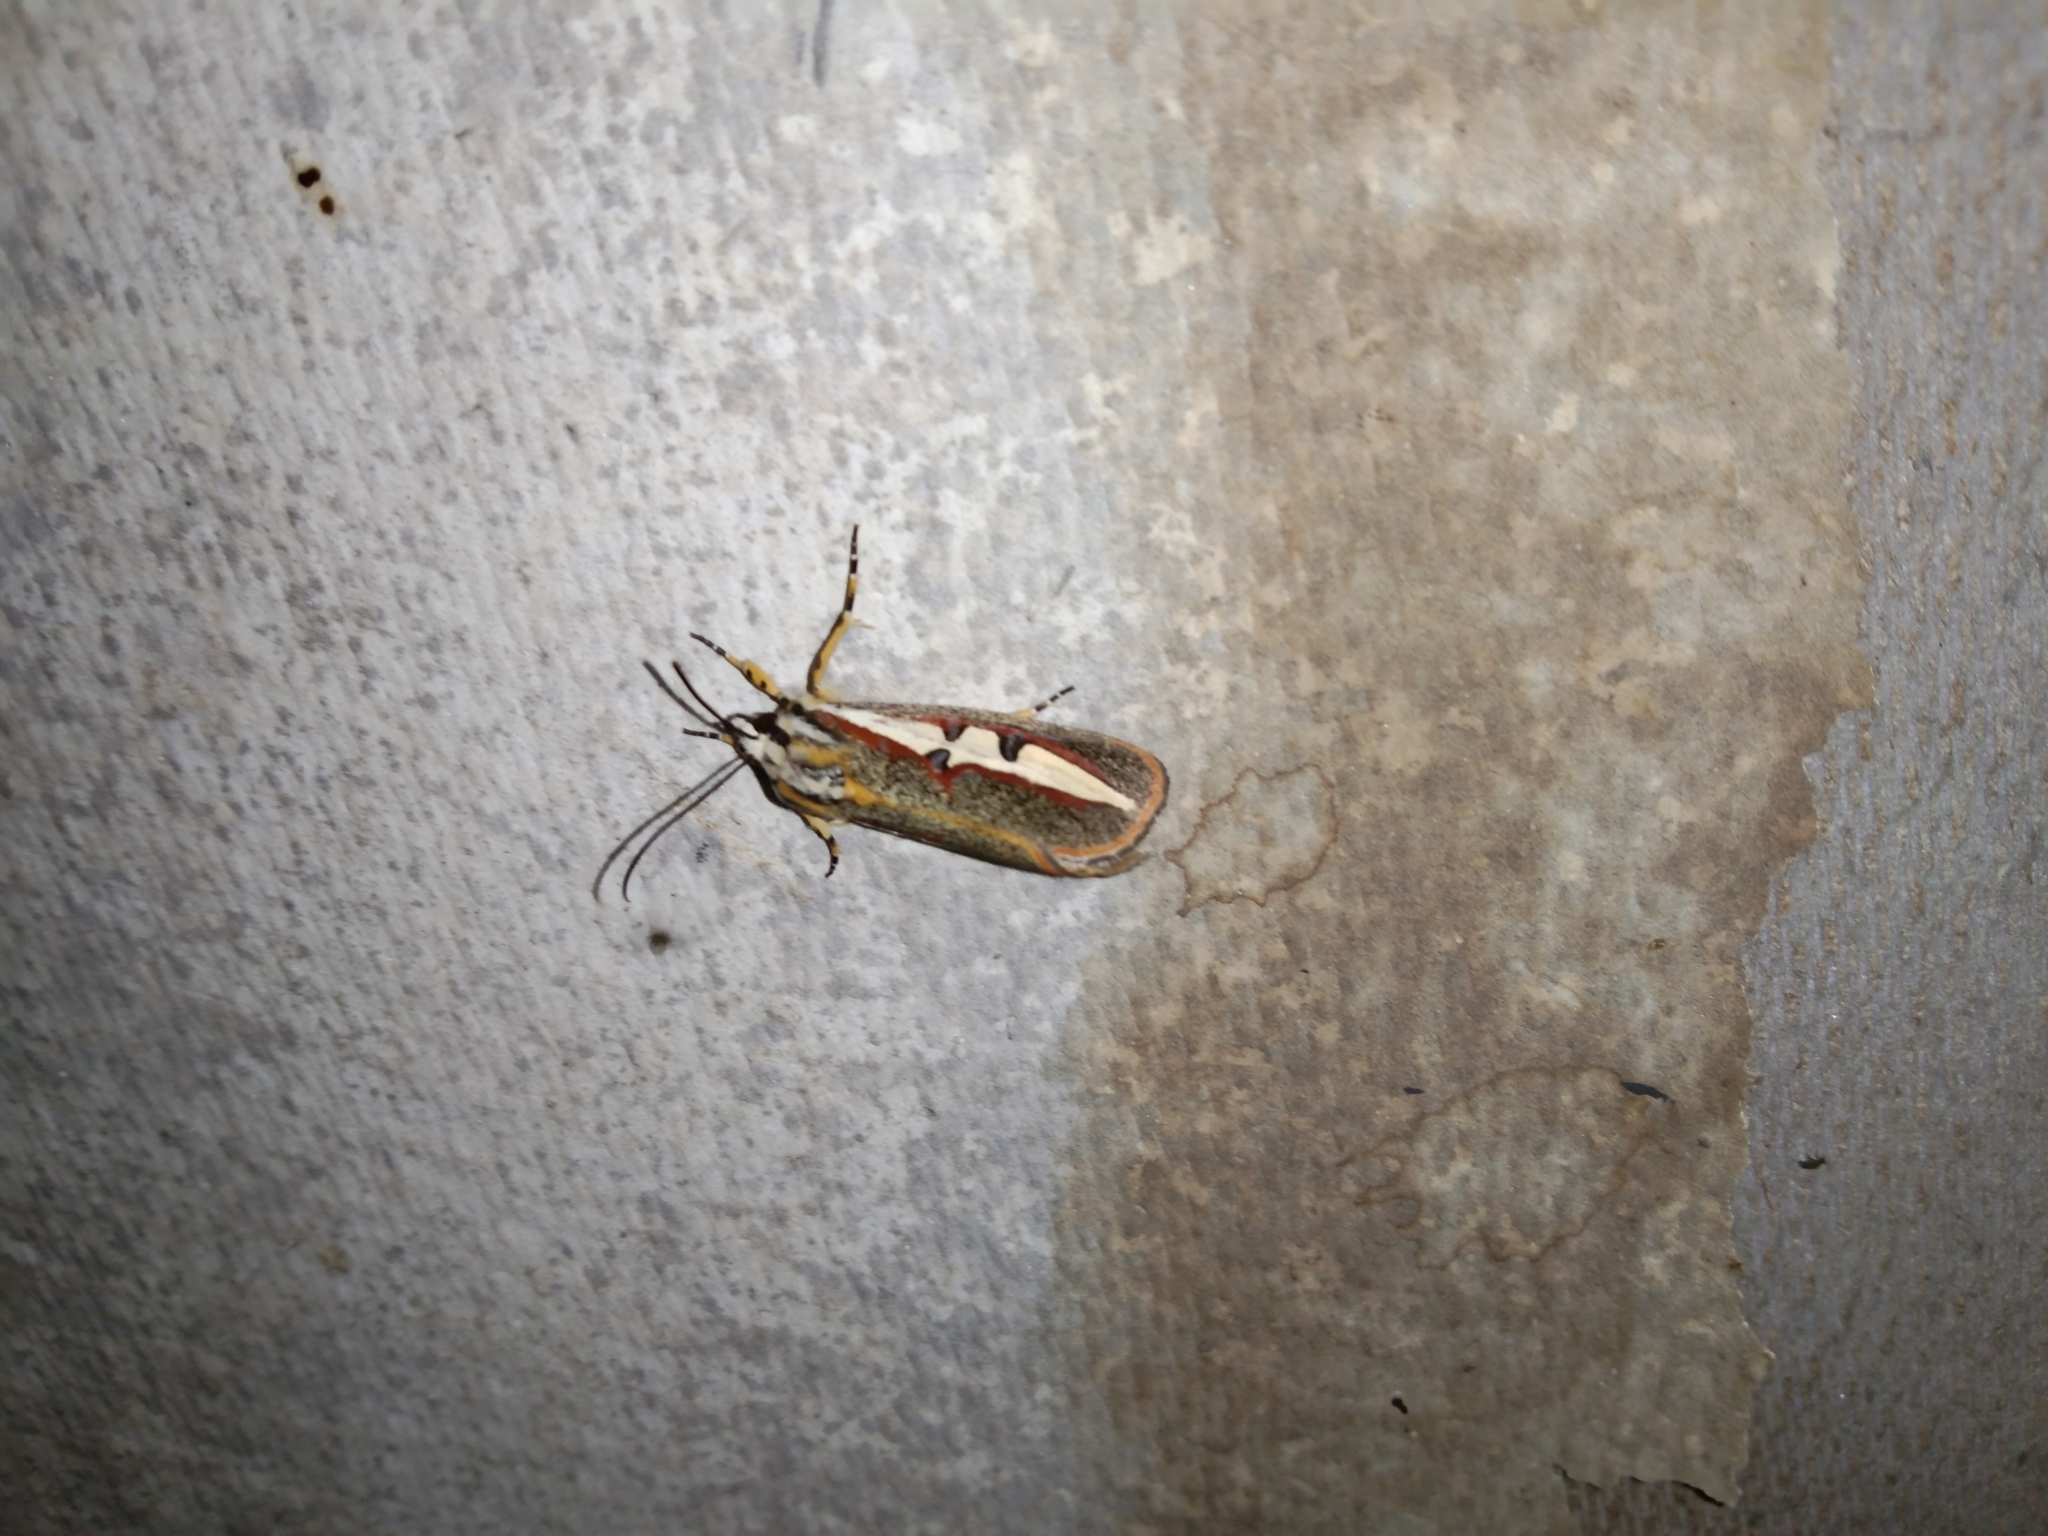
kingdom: Animalia
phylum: Arthropoda
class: Insecta
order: Lepidoptera
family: Noctuidae
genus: Aegocera
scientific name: Aegocera rectilinea
